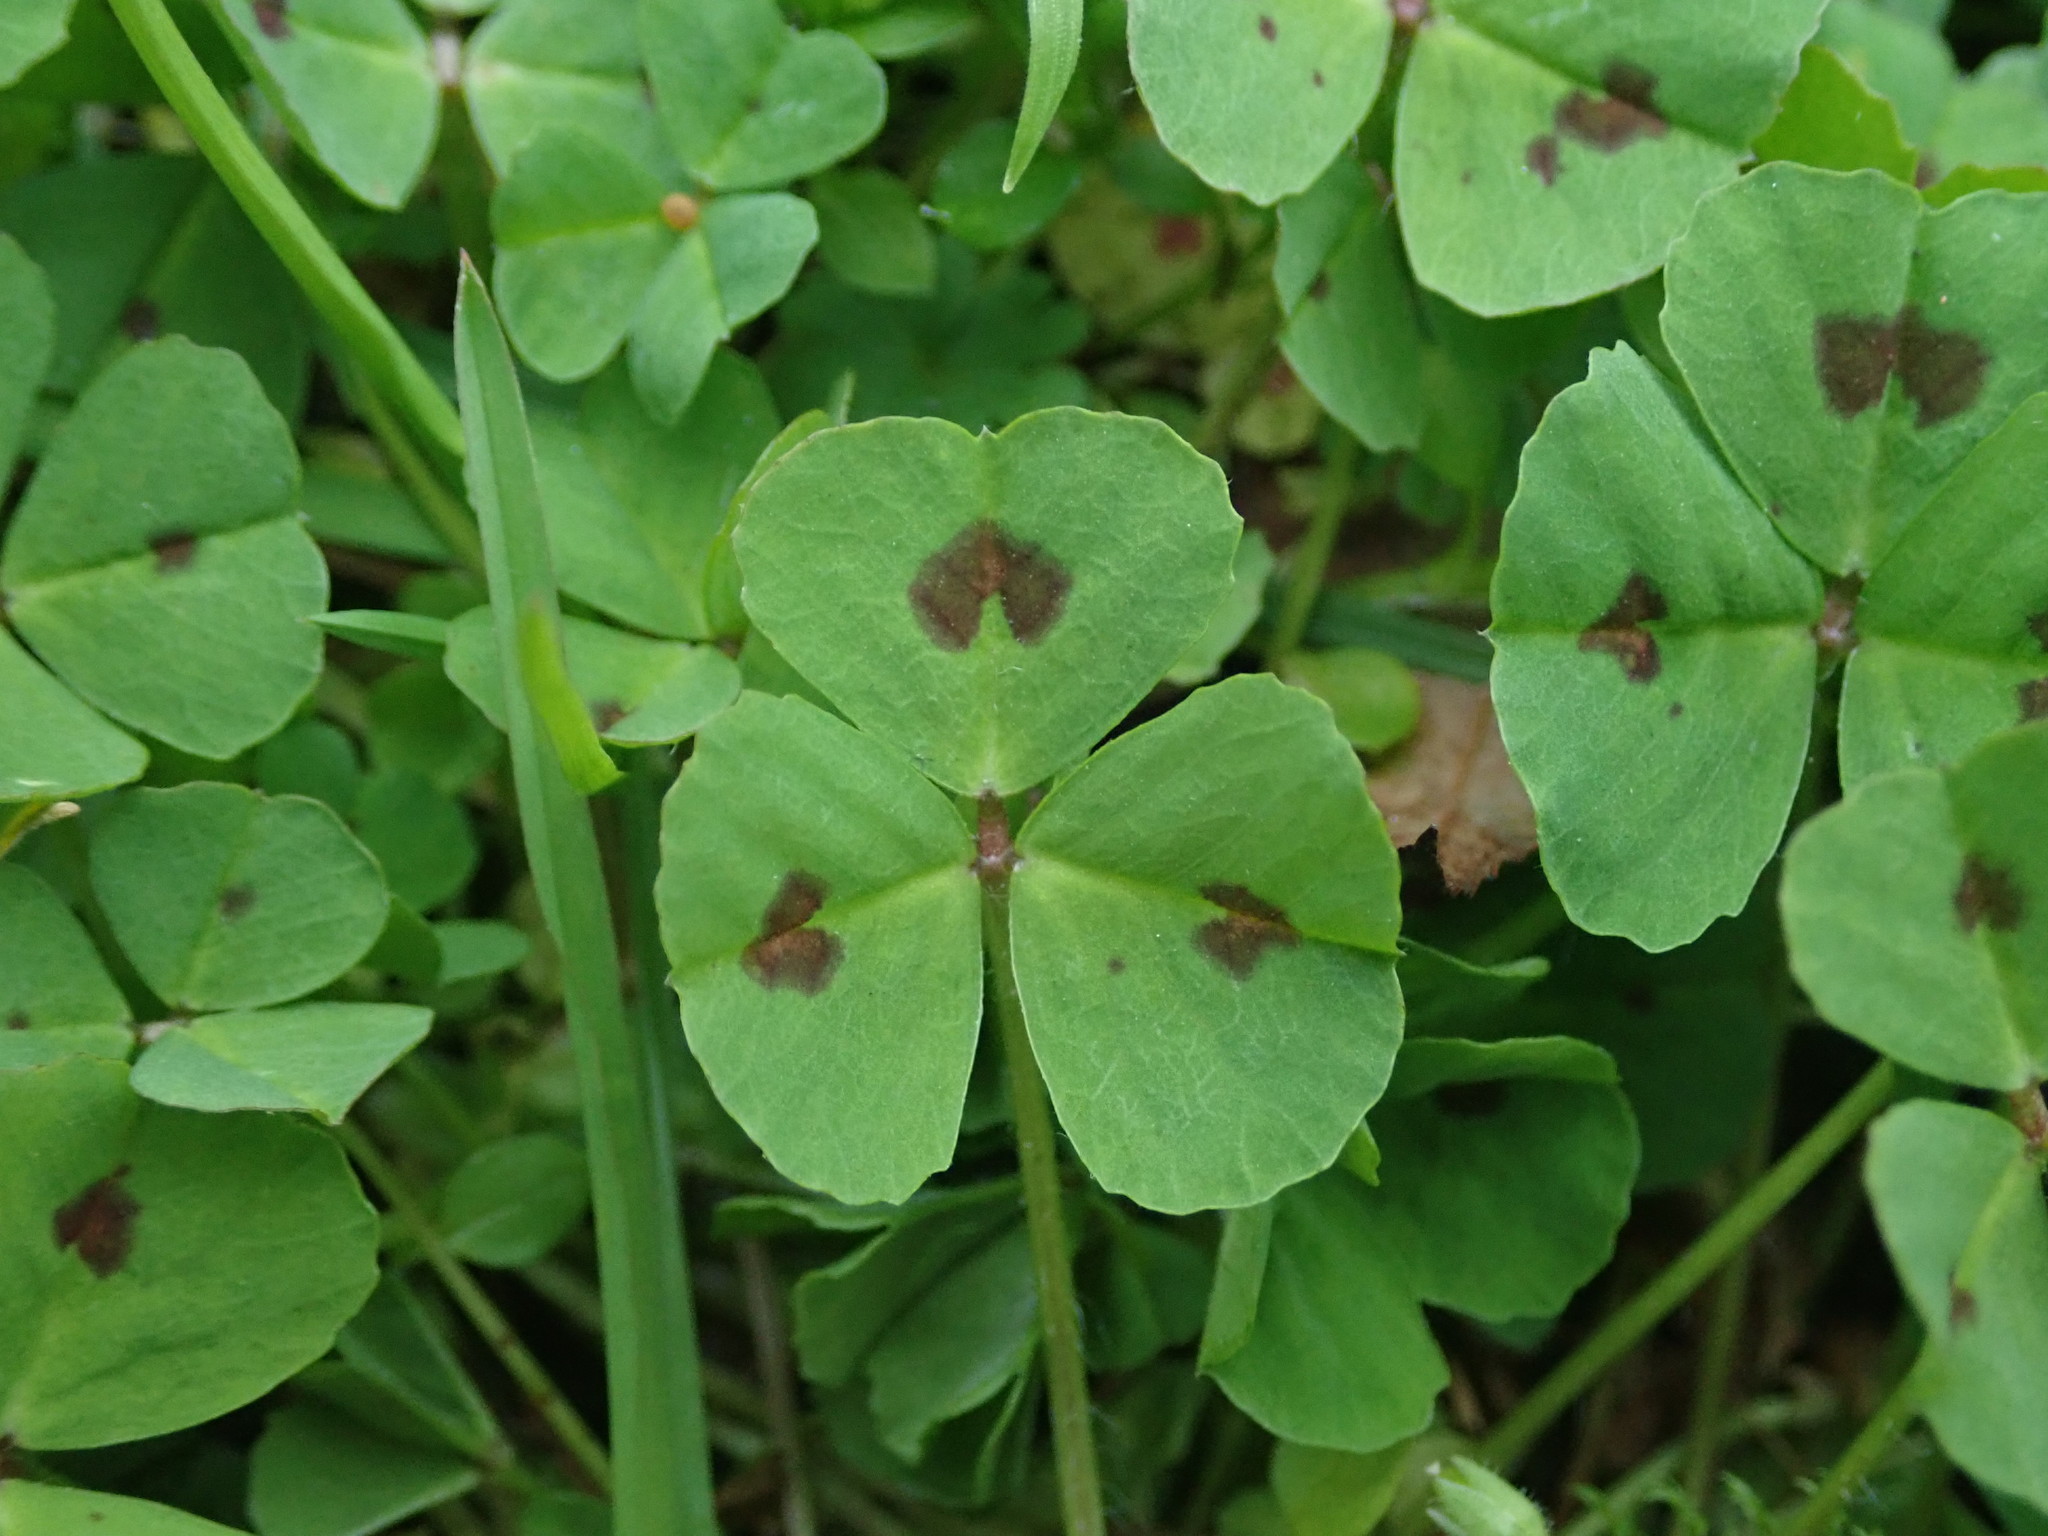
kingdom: Plantae
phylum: Tracheophyta
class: Magnoliopsida
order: Fabales
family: Fabaceae
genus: Medicago
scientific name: Medicago arabica
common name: Spotted medick
